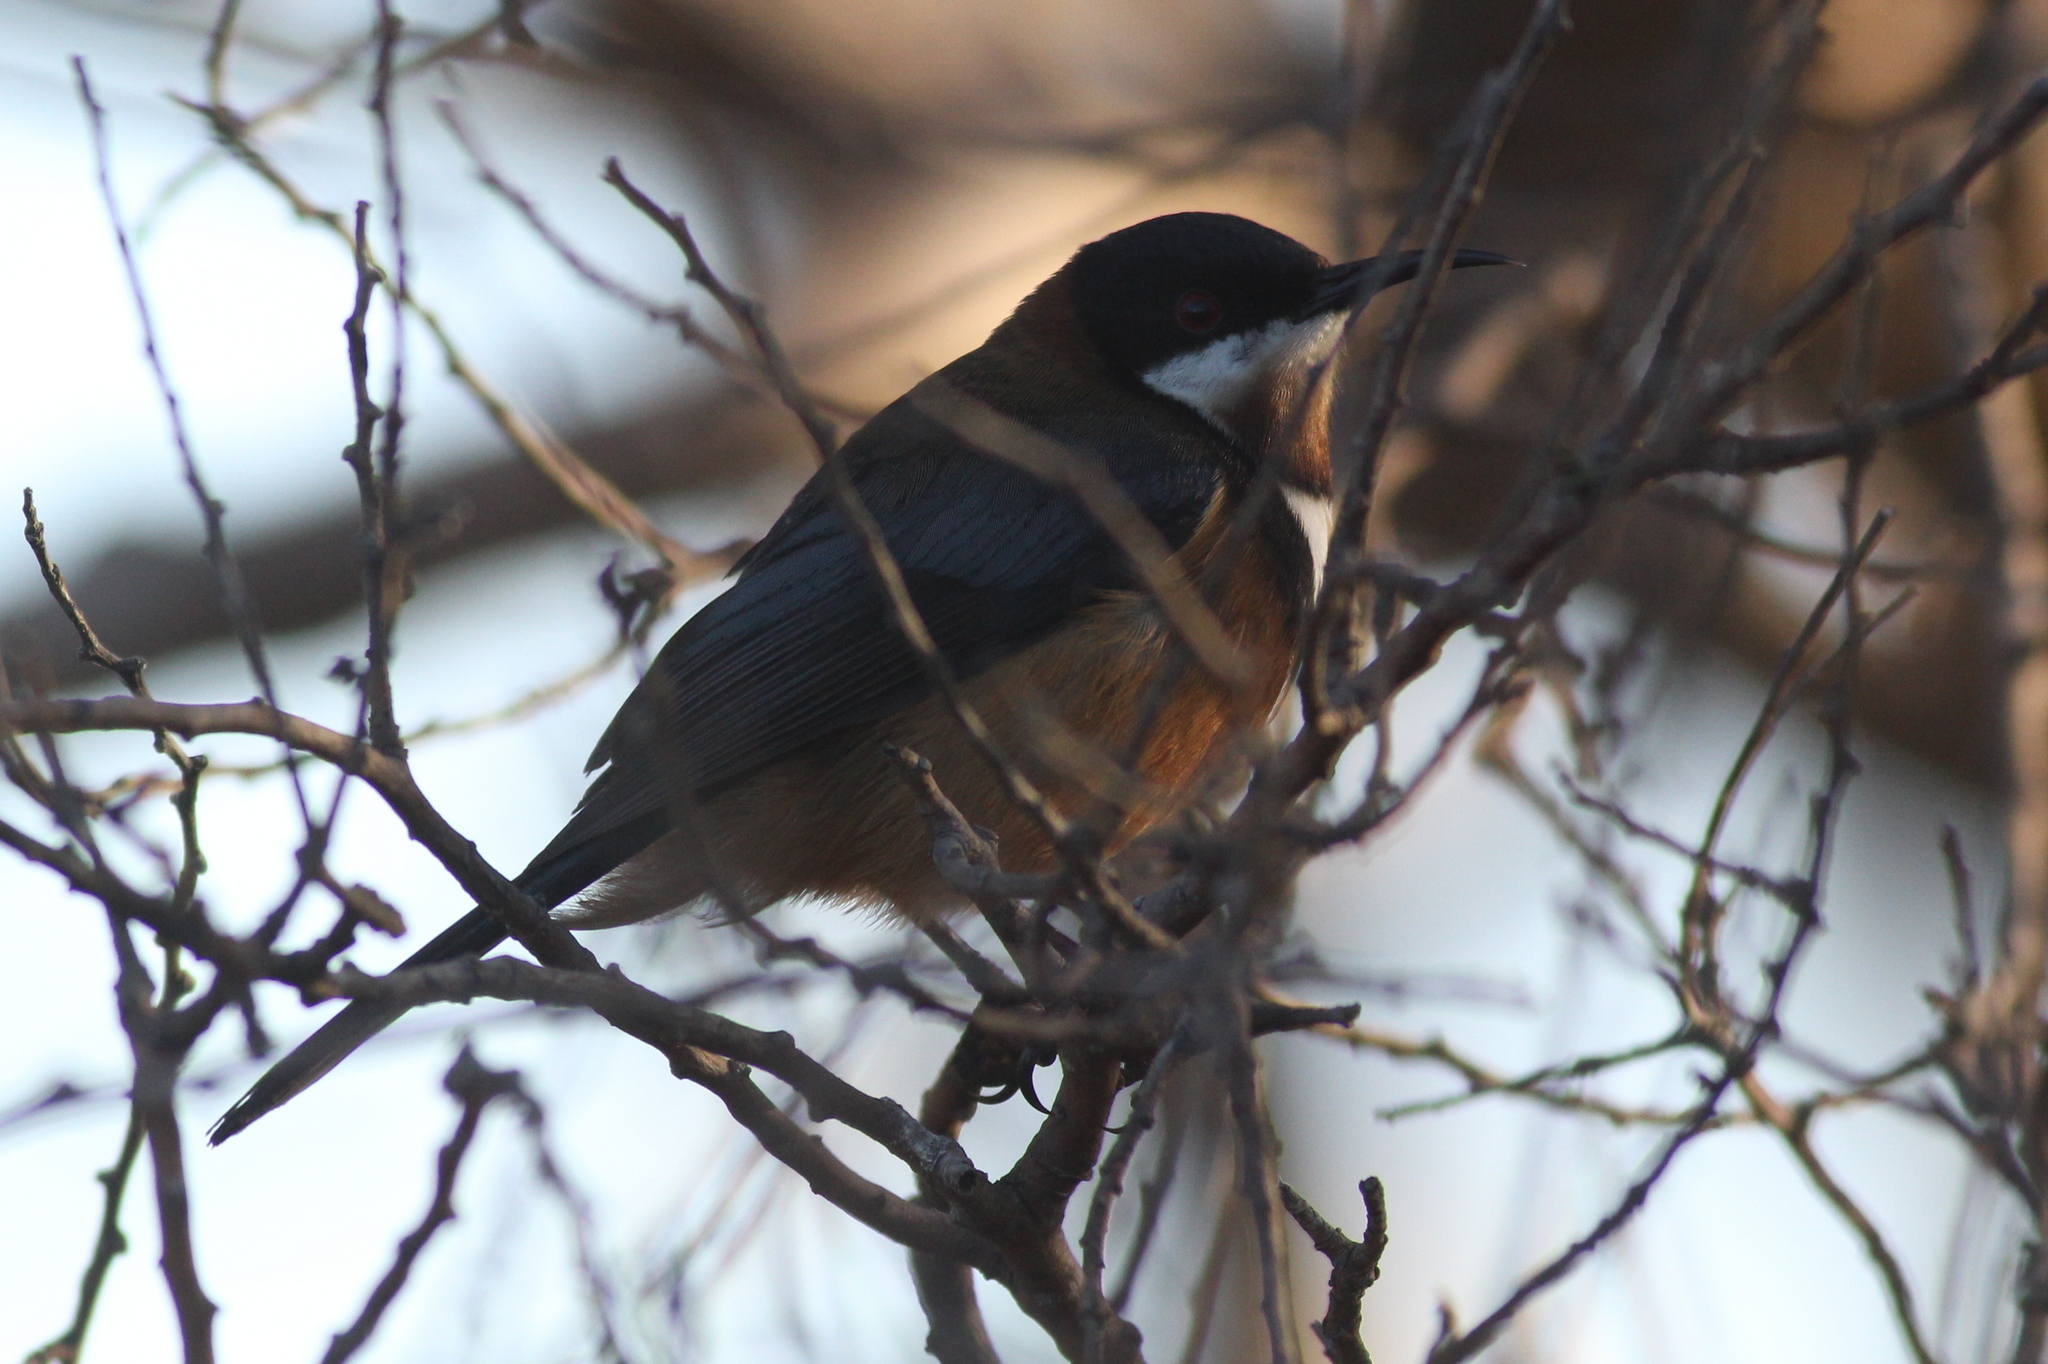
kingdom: Animalia
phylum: Chordata
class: Aves
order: Passeriformes
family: Meliphagidae
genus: Acanthorhynchus
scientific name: Acanthorhynchus tenuirostris
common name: Eastern spinebill
